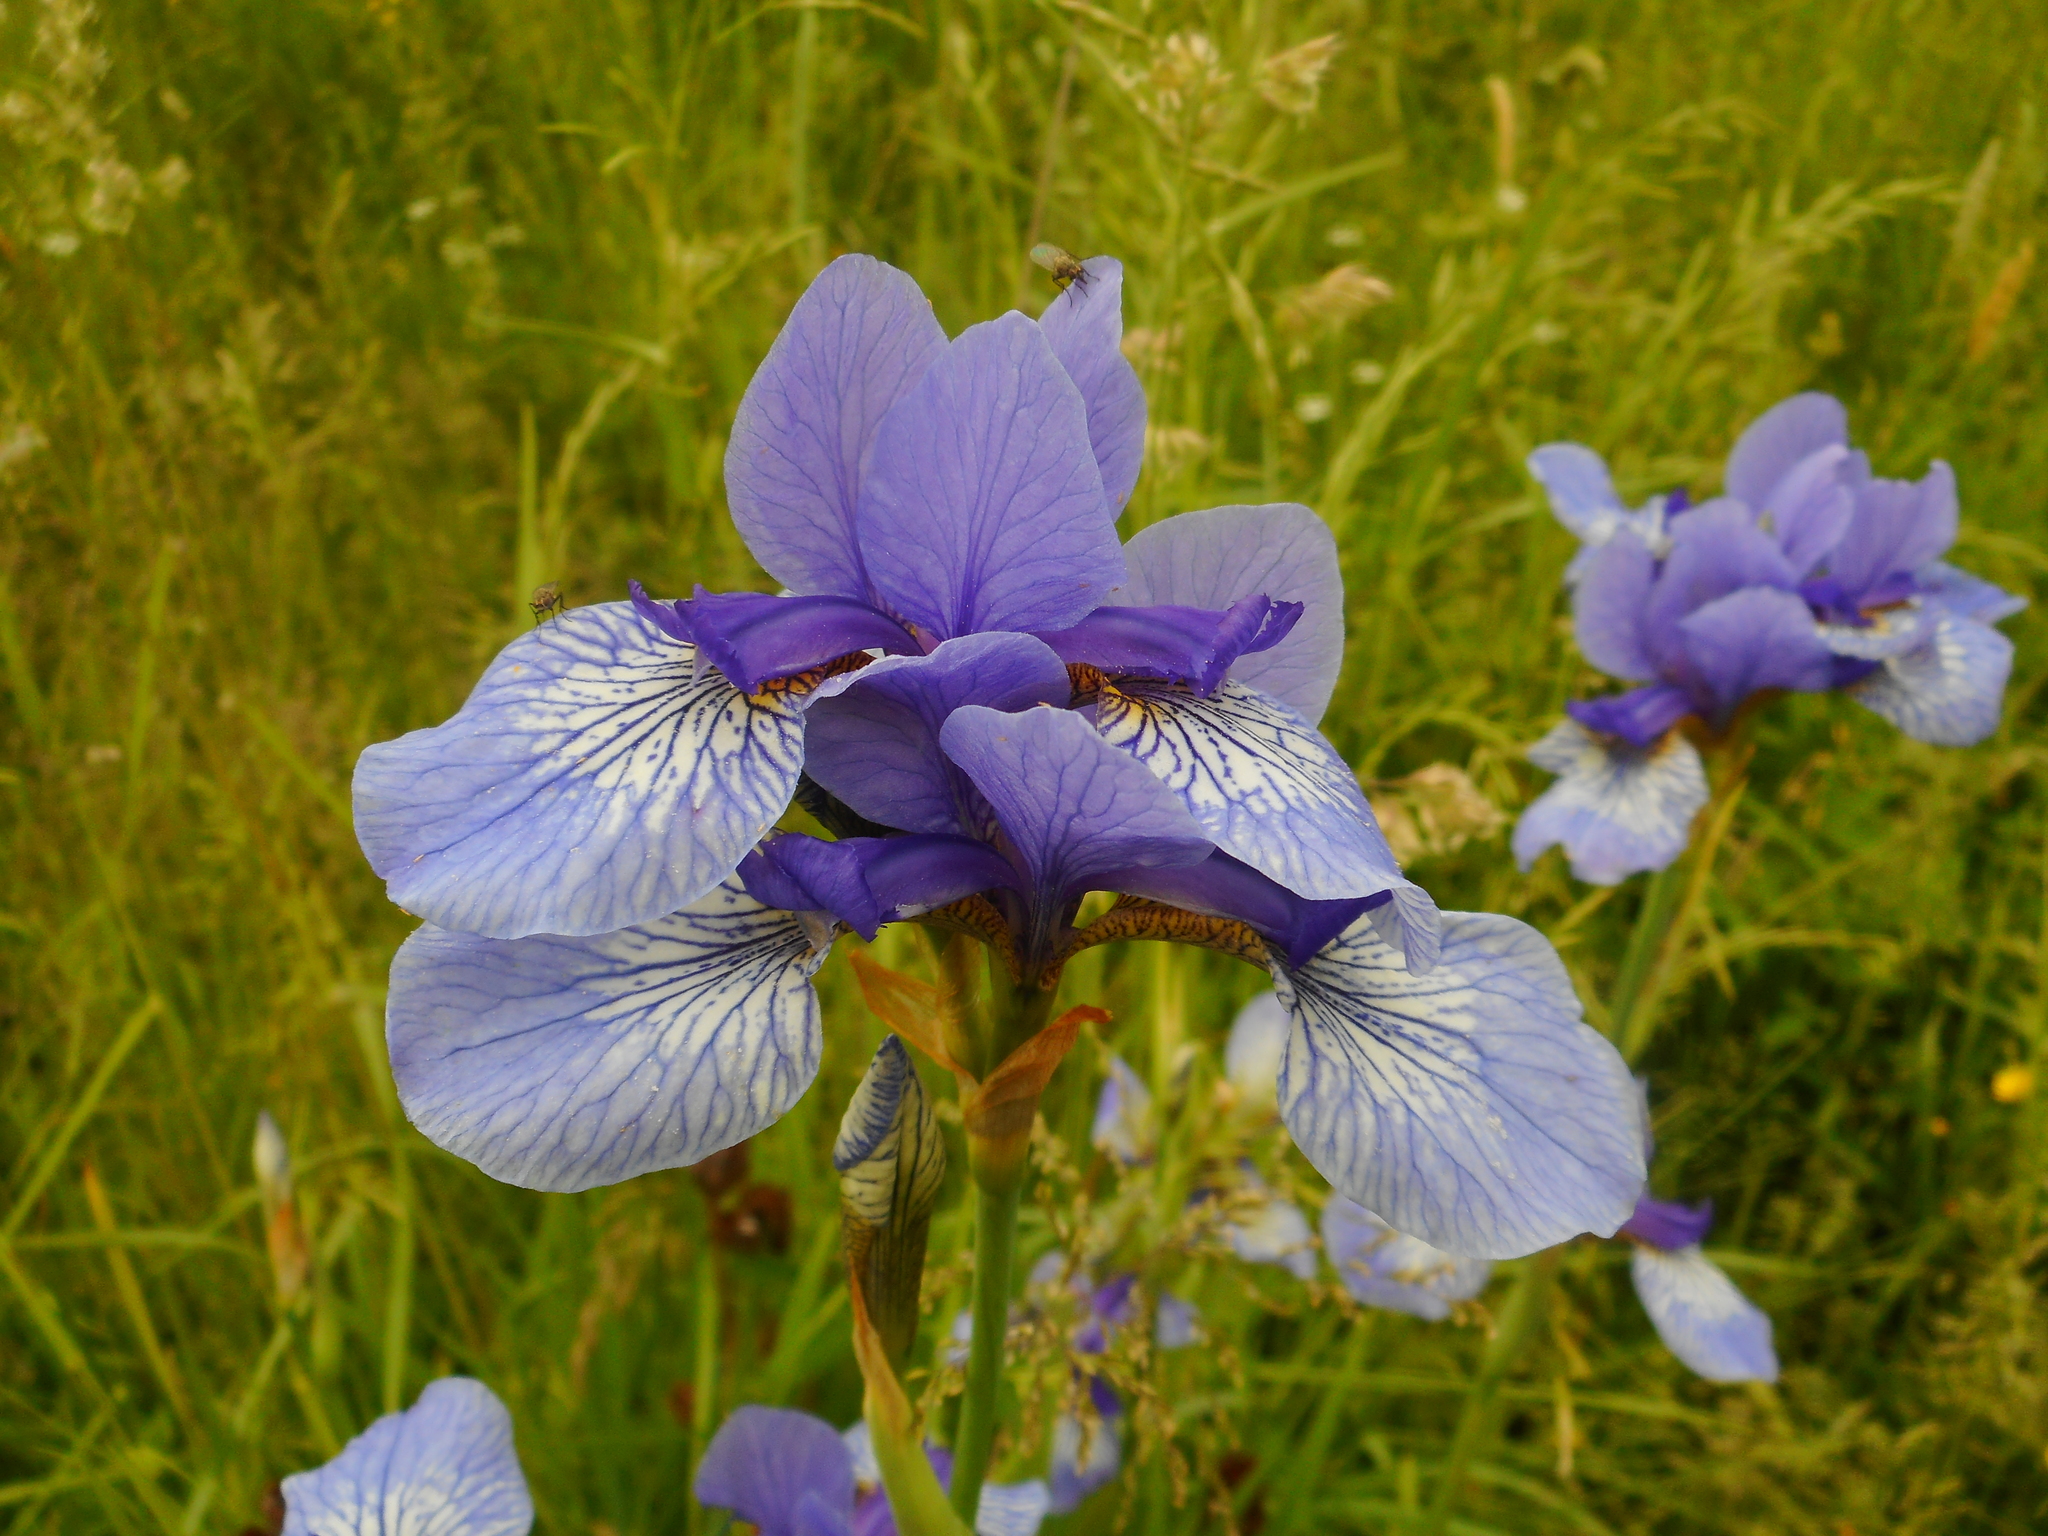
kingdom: Plantae
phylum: Tracheophyta
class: Liliopsida
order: Asparagales
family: Iridaceae
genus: Iris
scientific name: Iris sibirica
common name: Siberian iris
